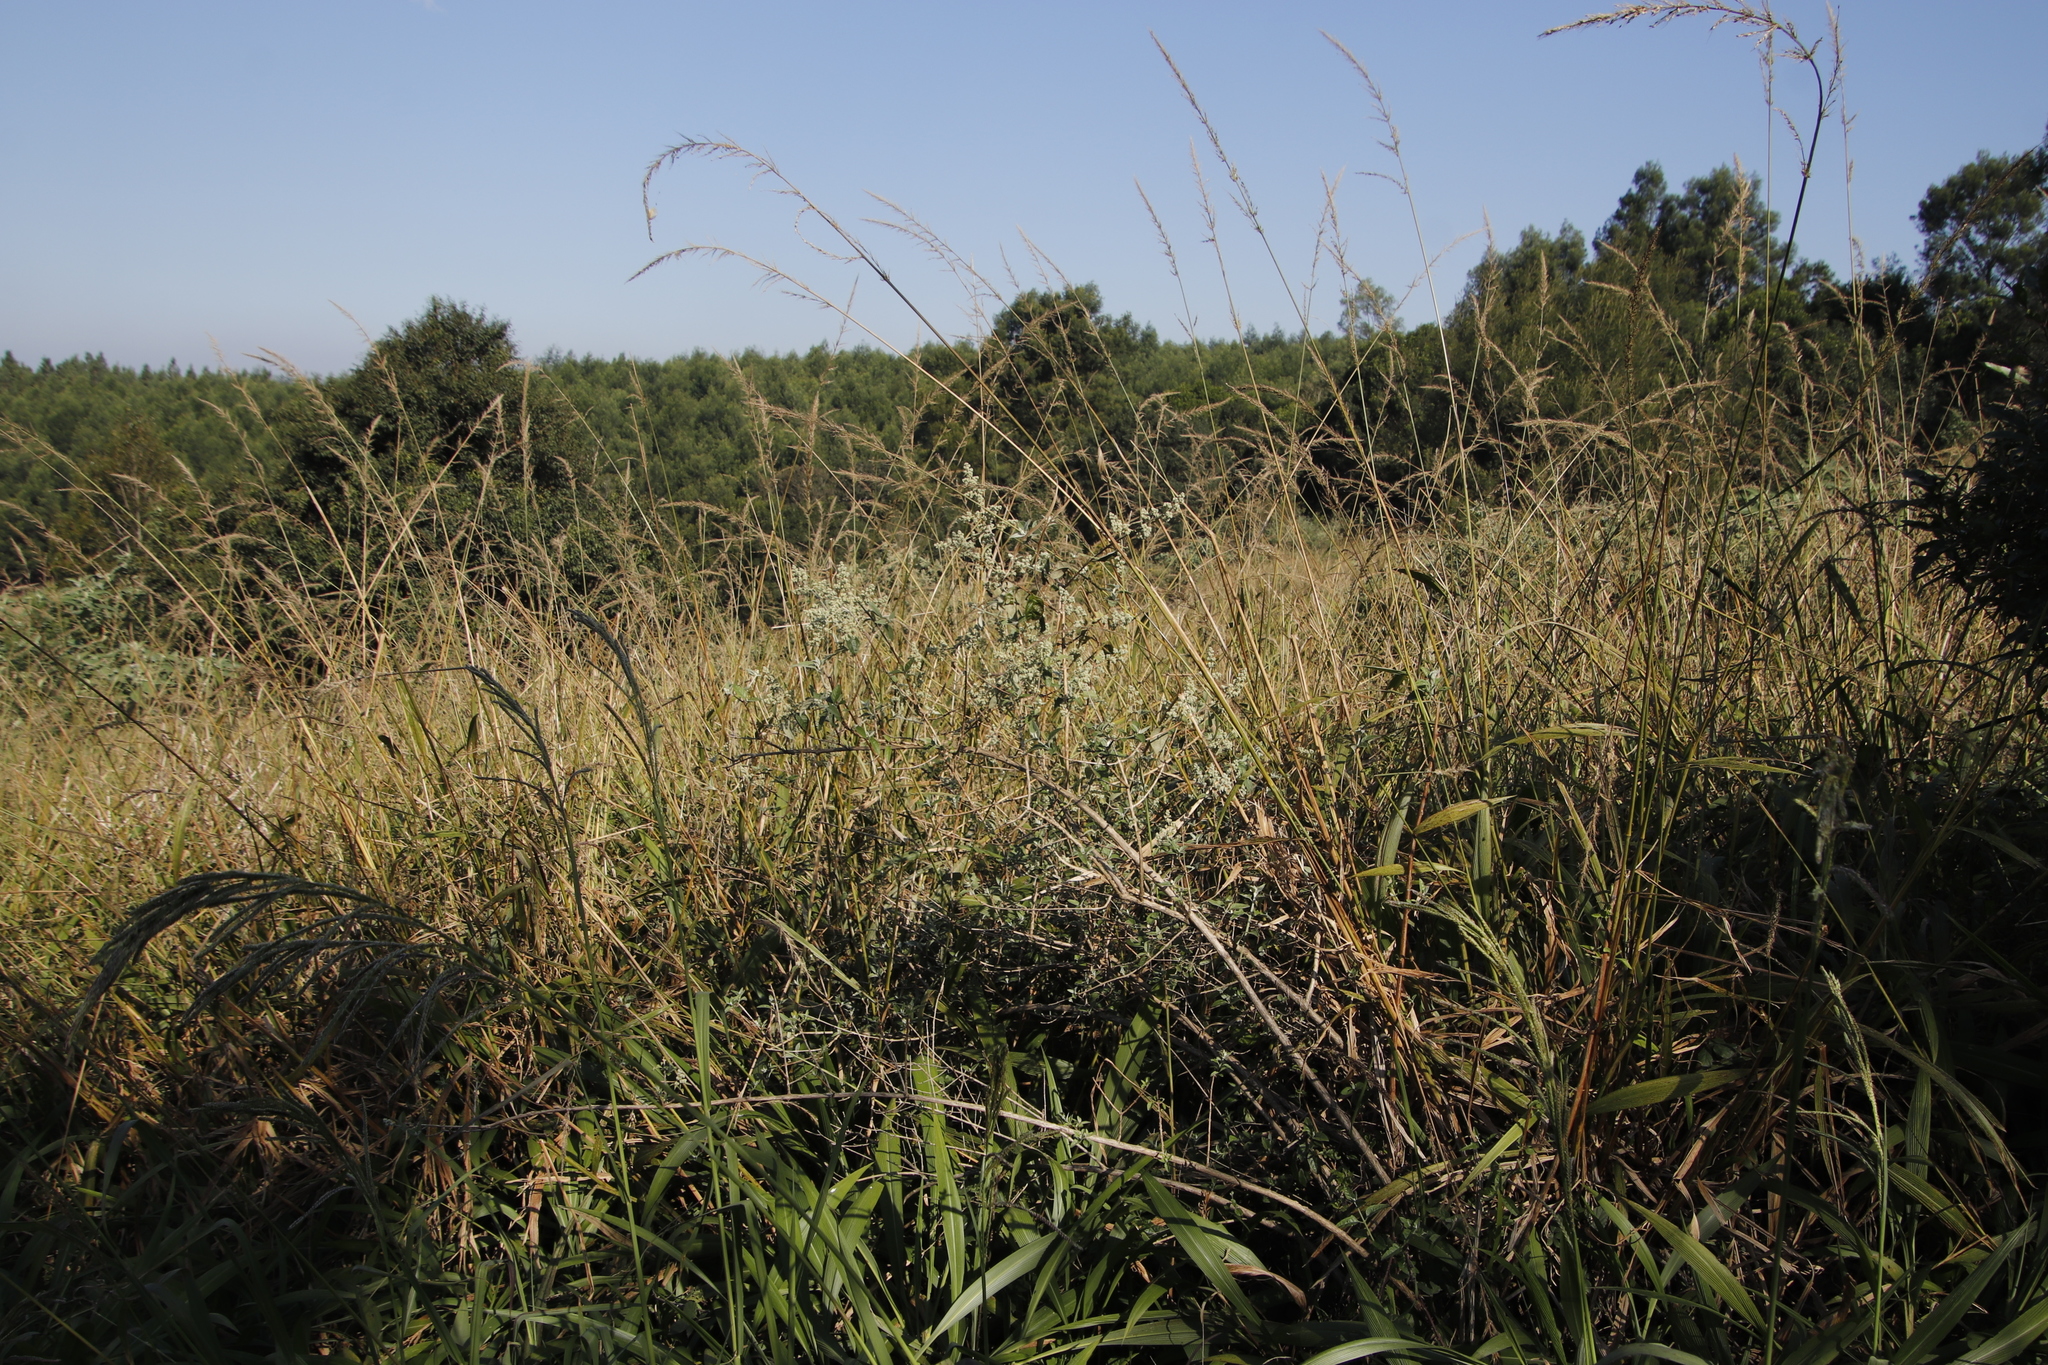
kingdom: Plantae
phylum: Tracheophyta
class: Magnoliopsida
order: Lamiales
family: Scrophulariaceae
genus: Buddleja
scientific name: Buddleja auriculata
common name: Weeping sagewood
